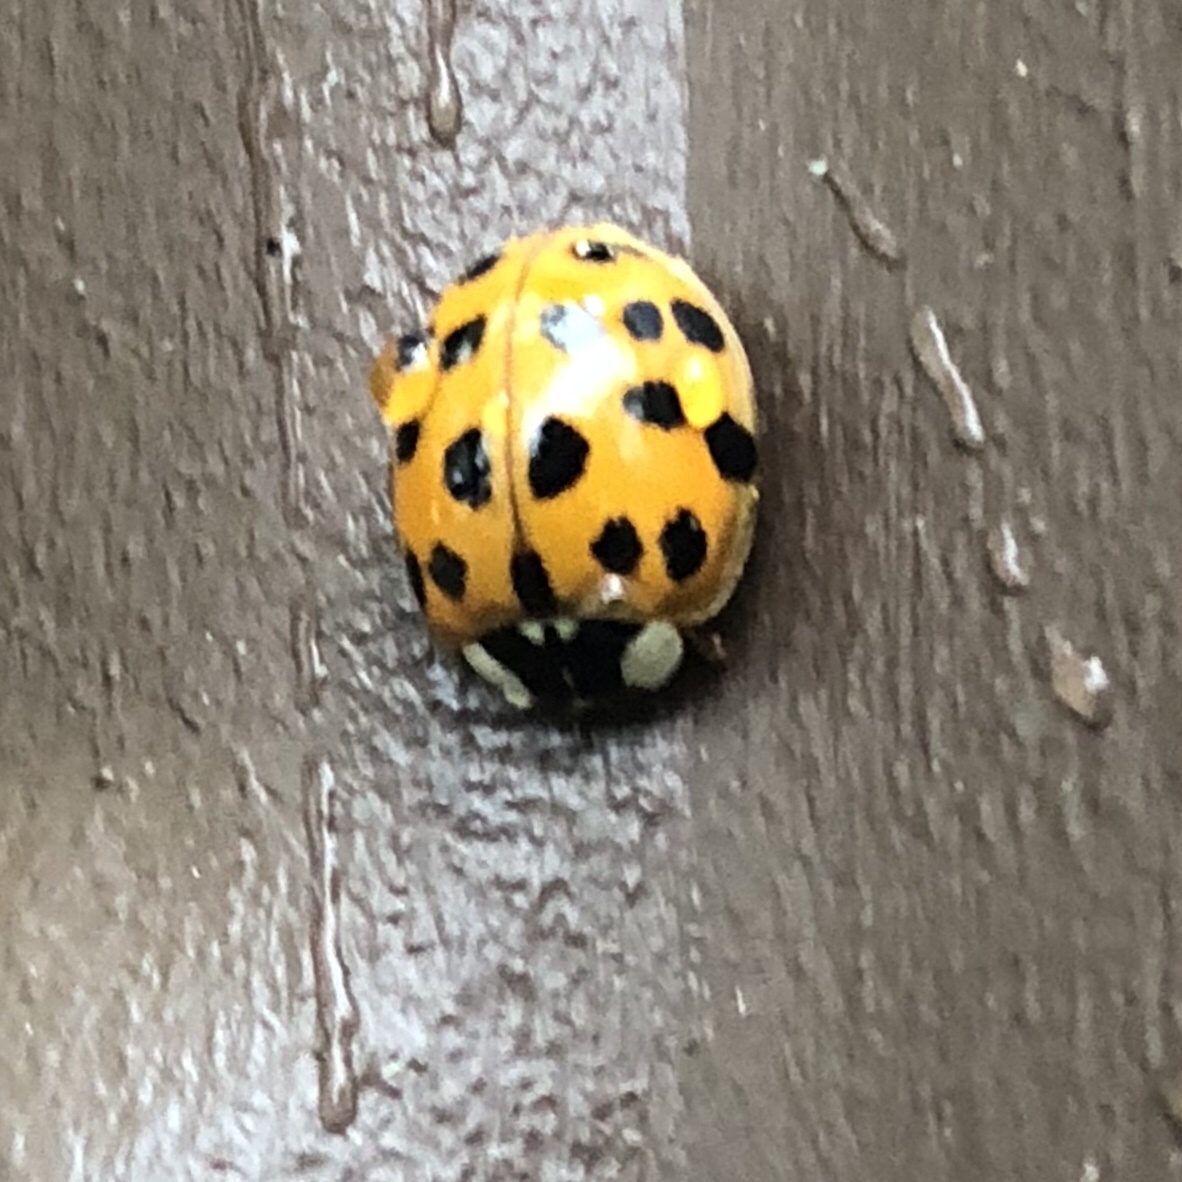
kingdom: Animalia
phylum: Arthropoda
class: Insecta
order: Coleoptera
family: Coccinellidae
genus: Harmonia
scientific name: Harmonia axyridis
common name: Harlequin ladybird
